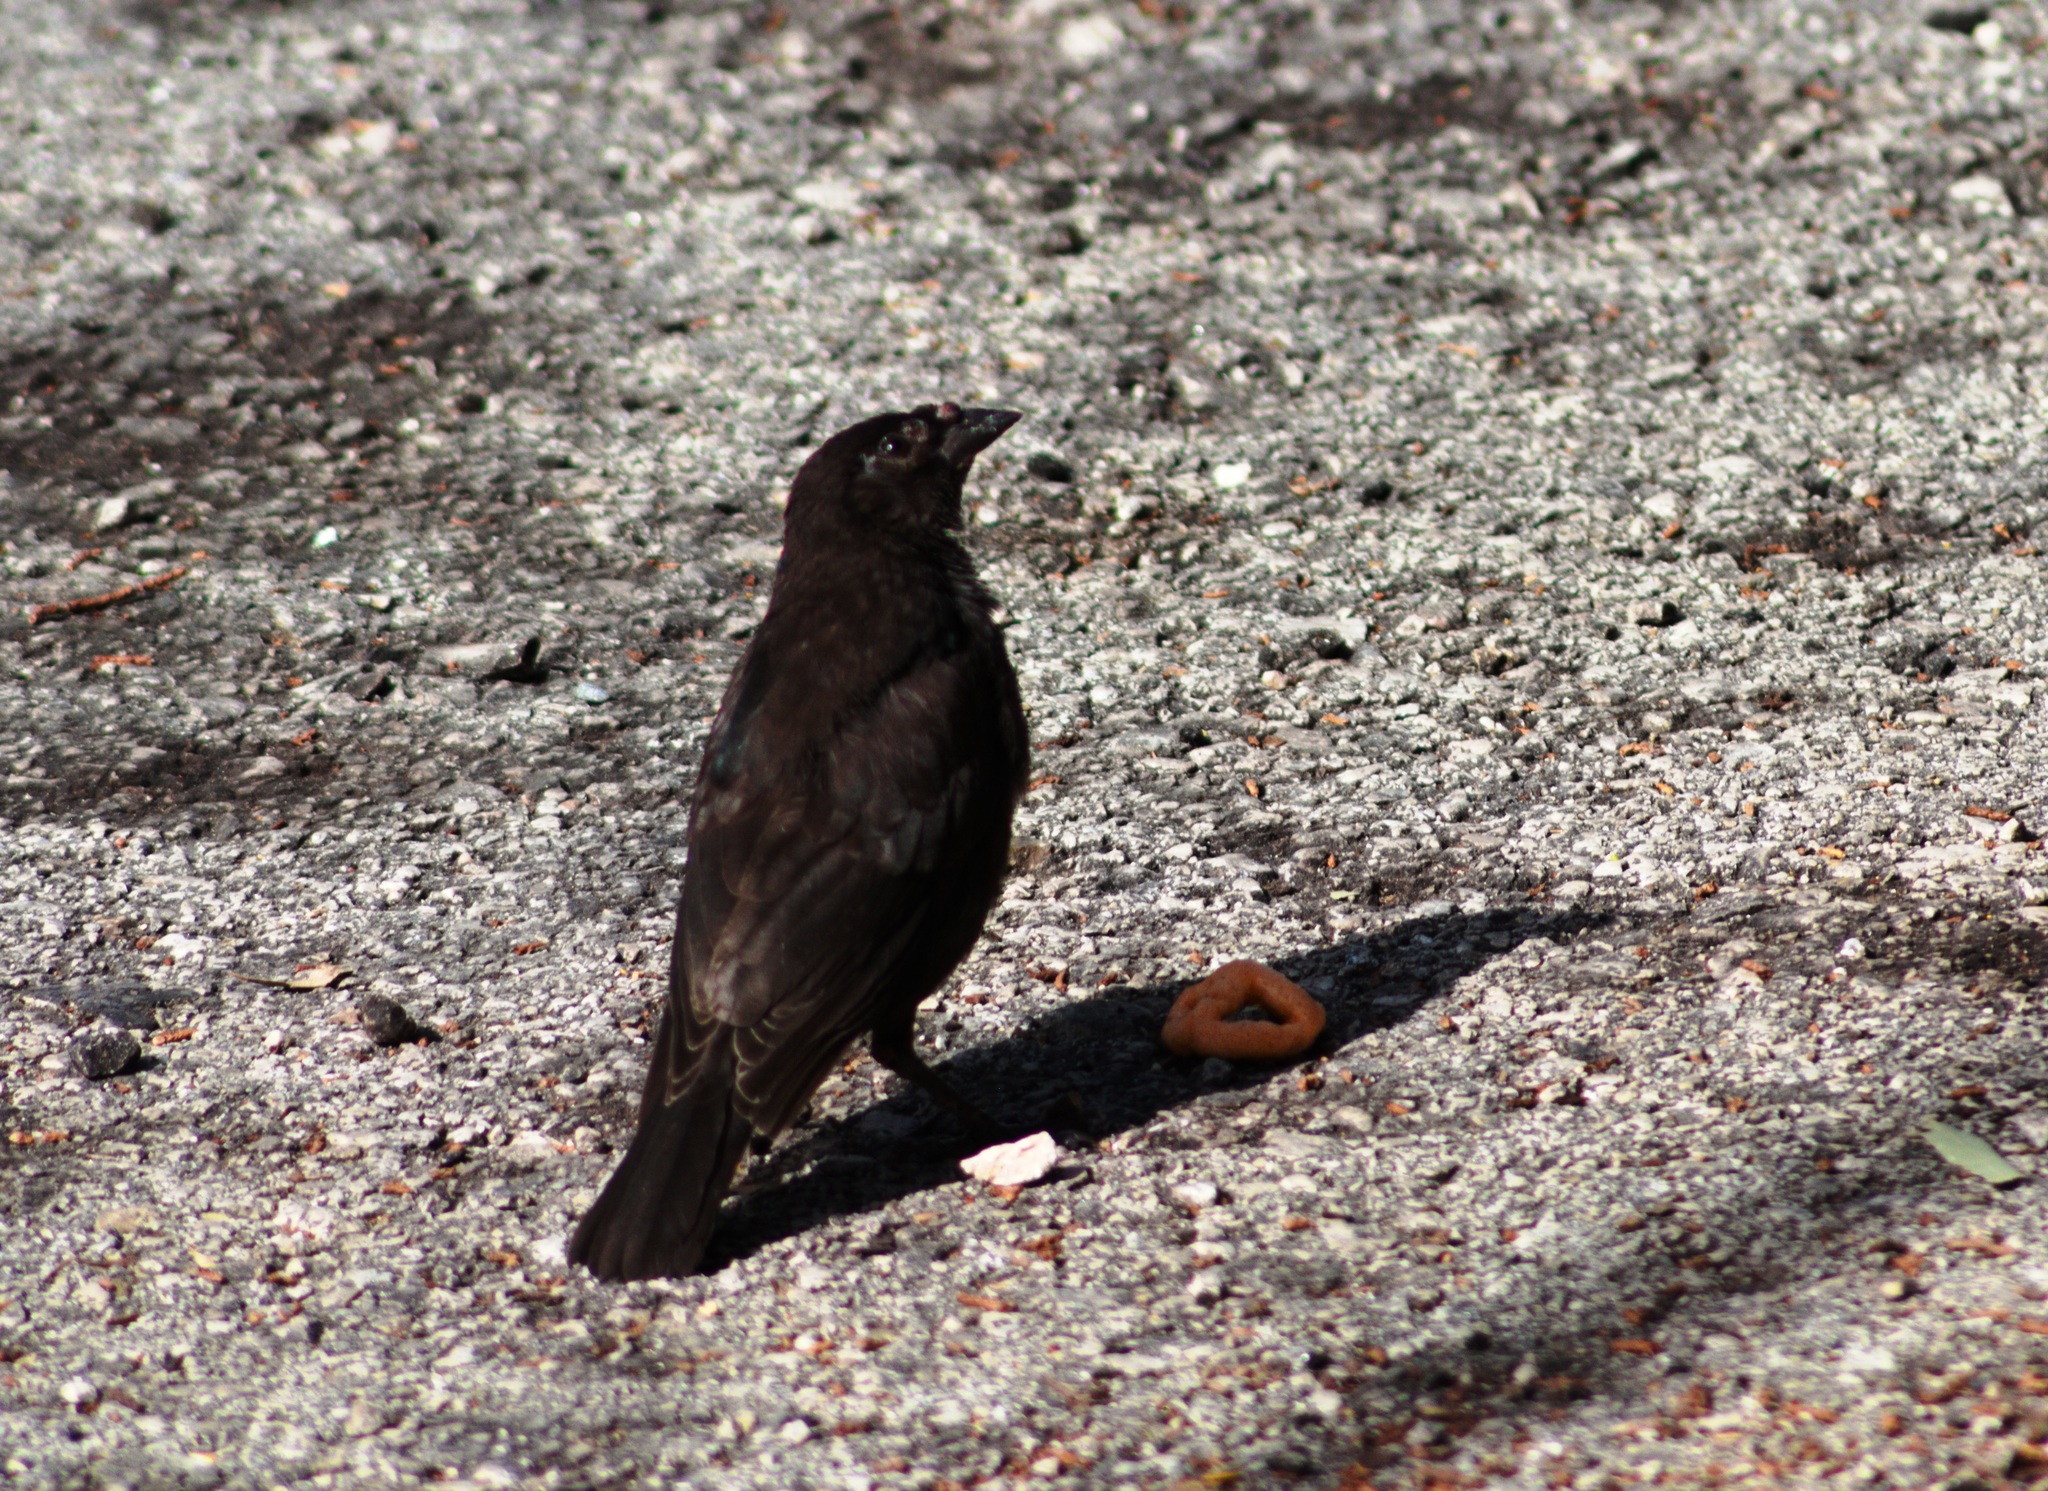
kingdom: Animalia
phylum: Chordata
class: Aves
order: Passeriformes
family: Icteridae
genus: Molothrus
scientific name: Molothrus aeneus
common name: Bronzed cowbird
